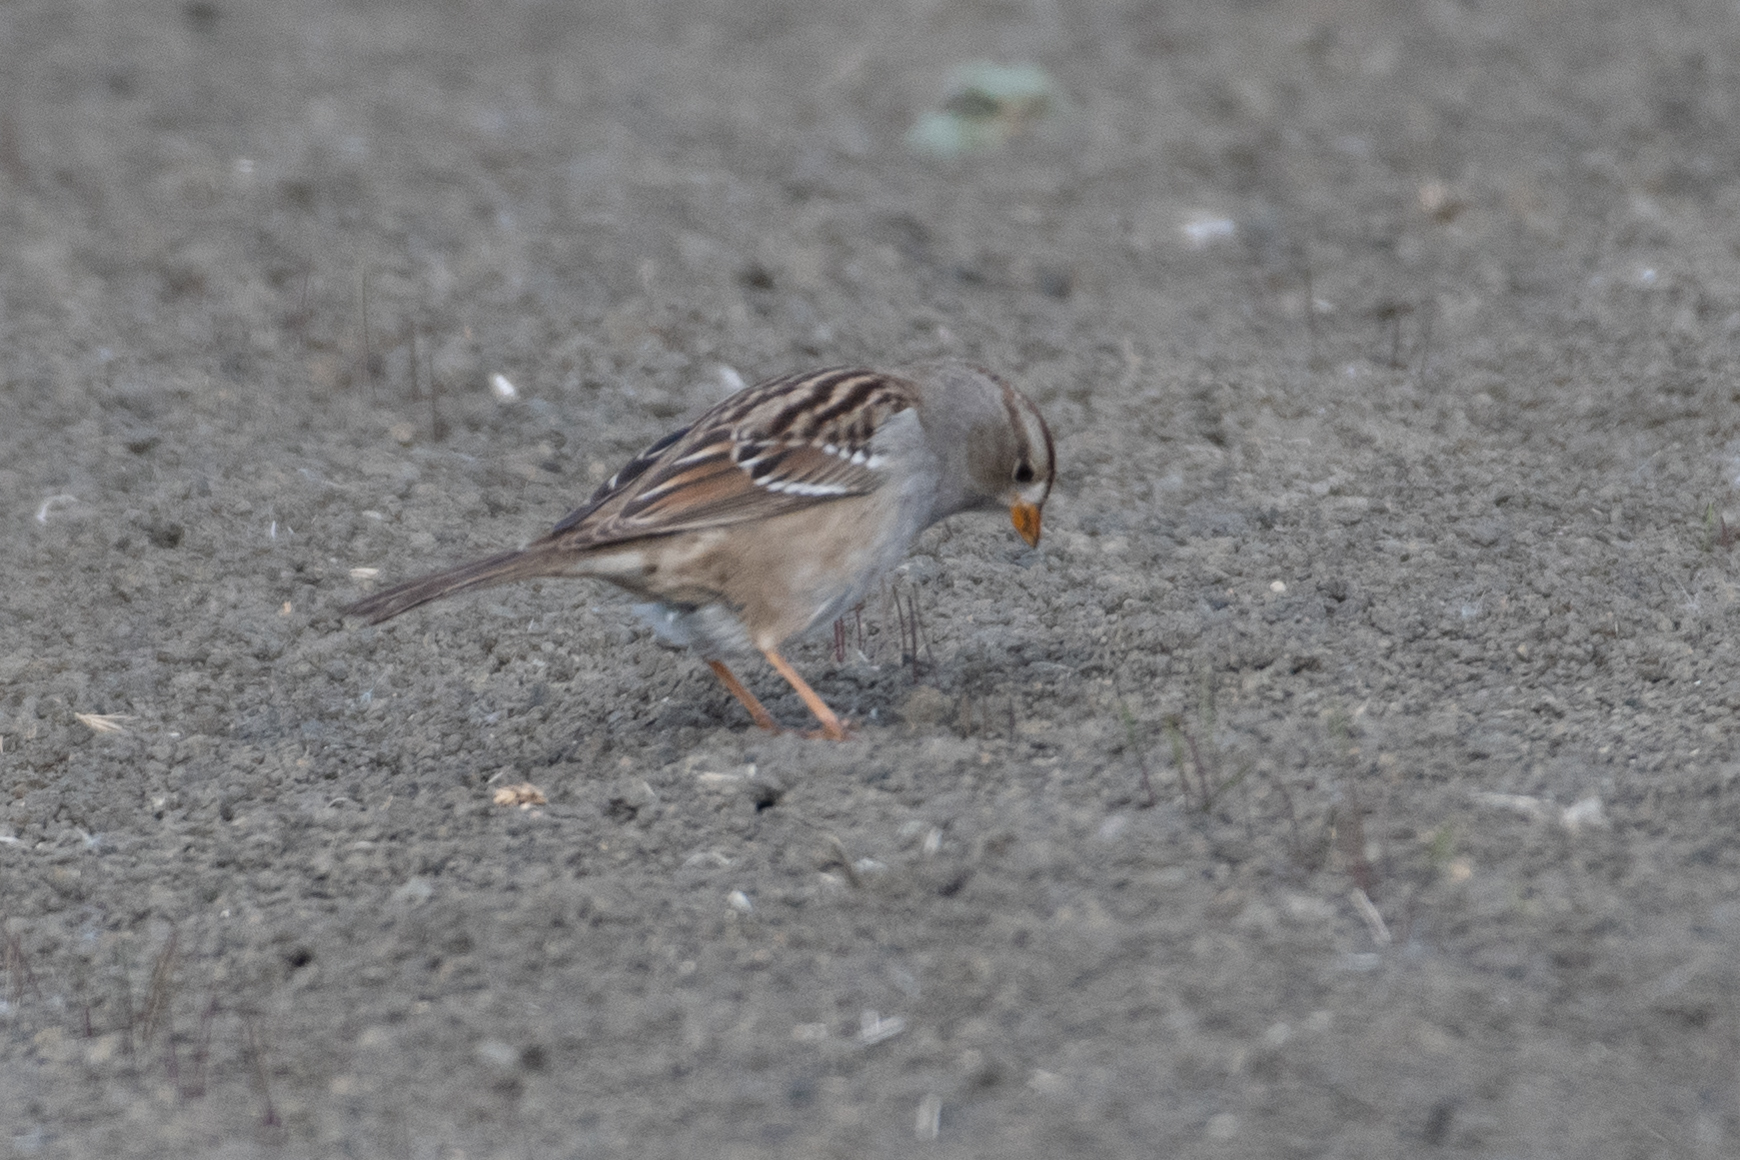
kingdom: Animalia
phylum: Chordata
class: Aves
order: Passeriformes
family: Passerellidae
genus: Zonotrichia
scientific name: Zonotrichia leucophrys
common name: White-crowned sparrow
